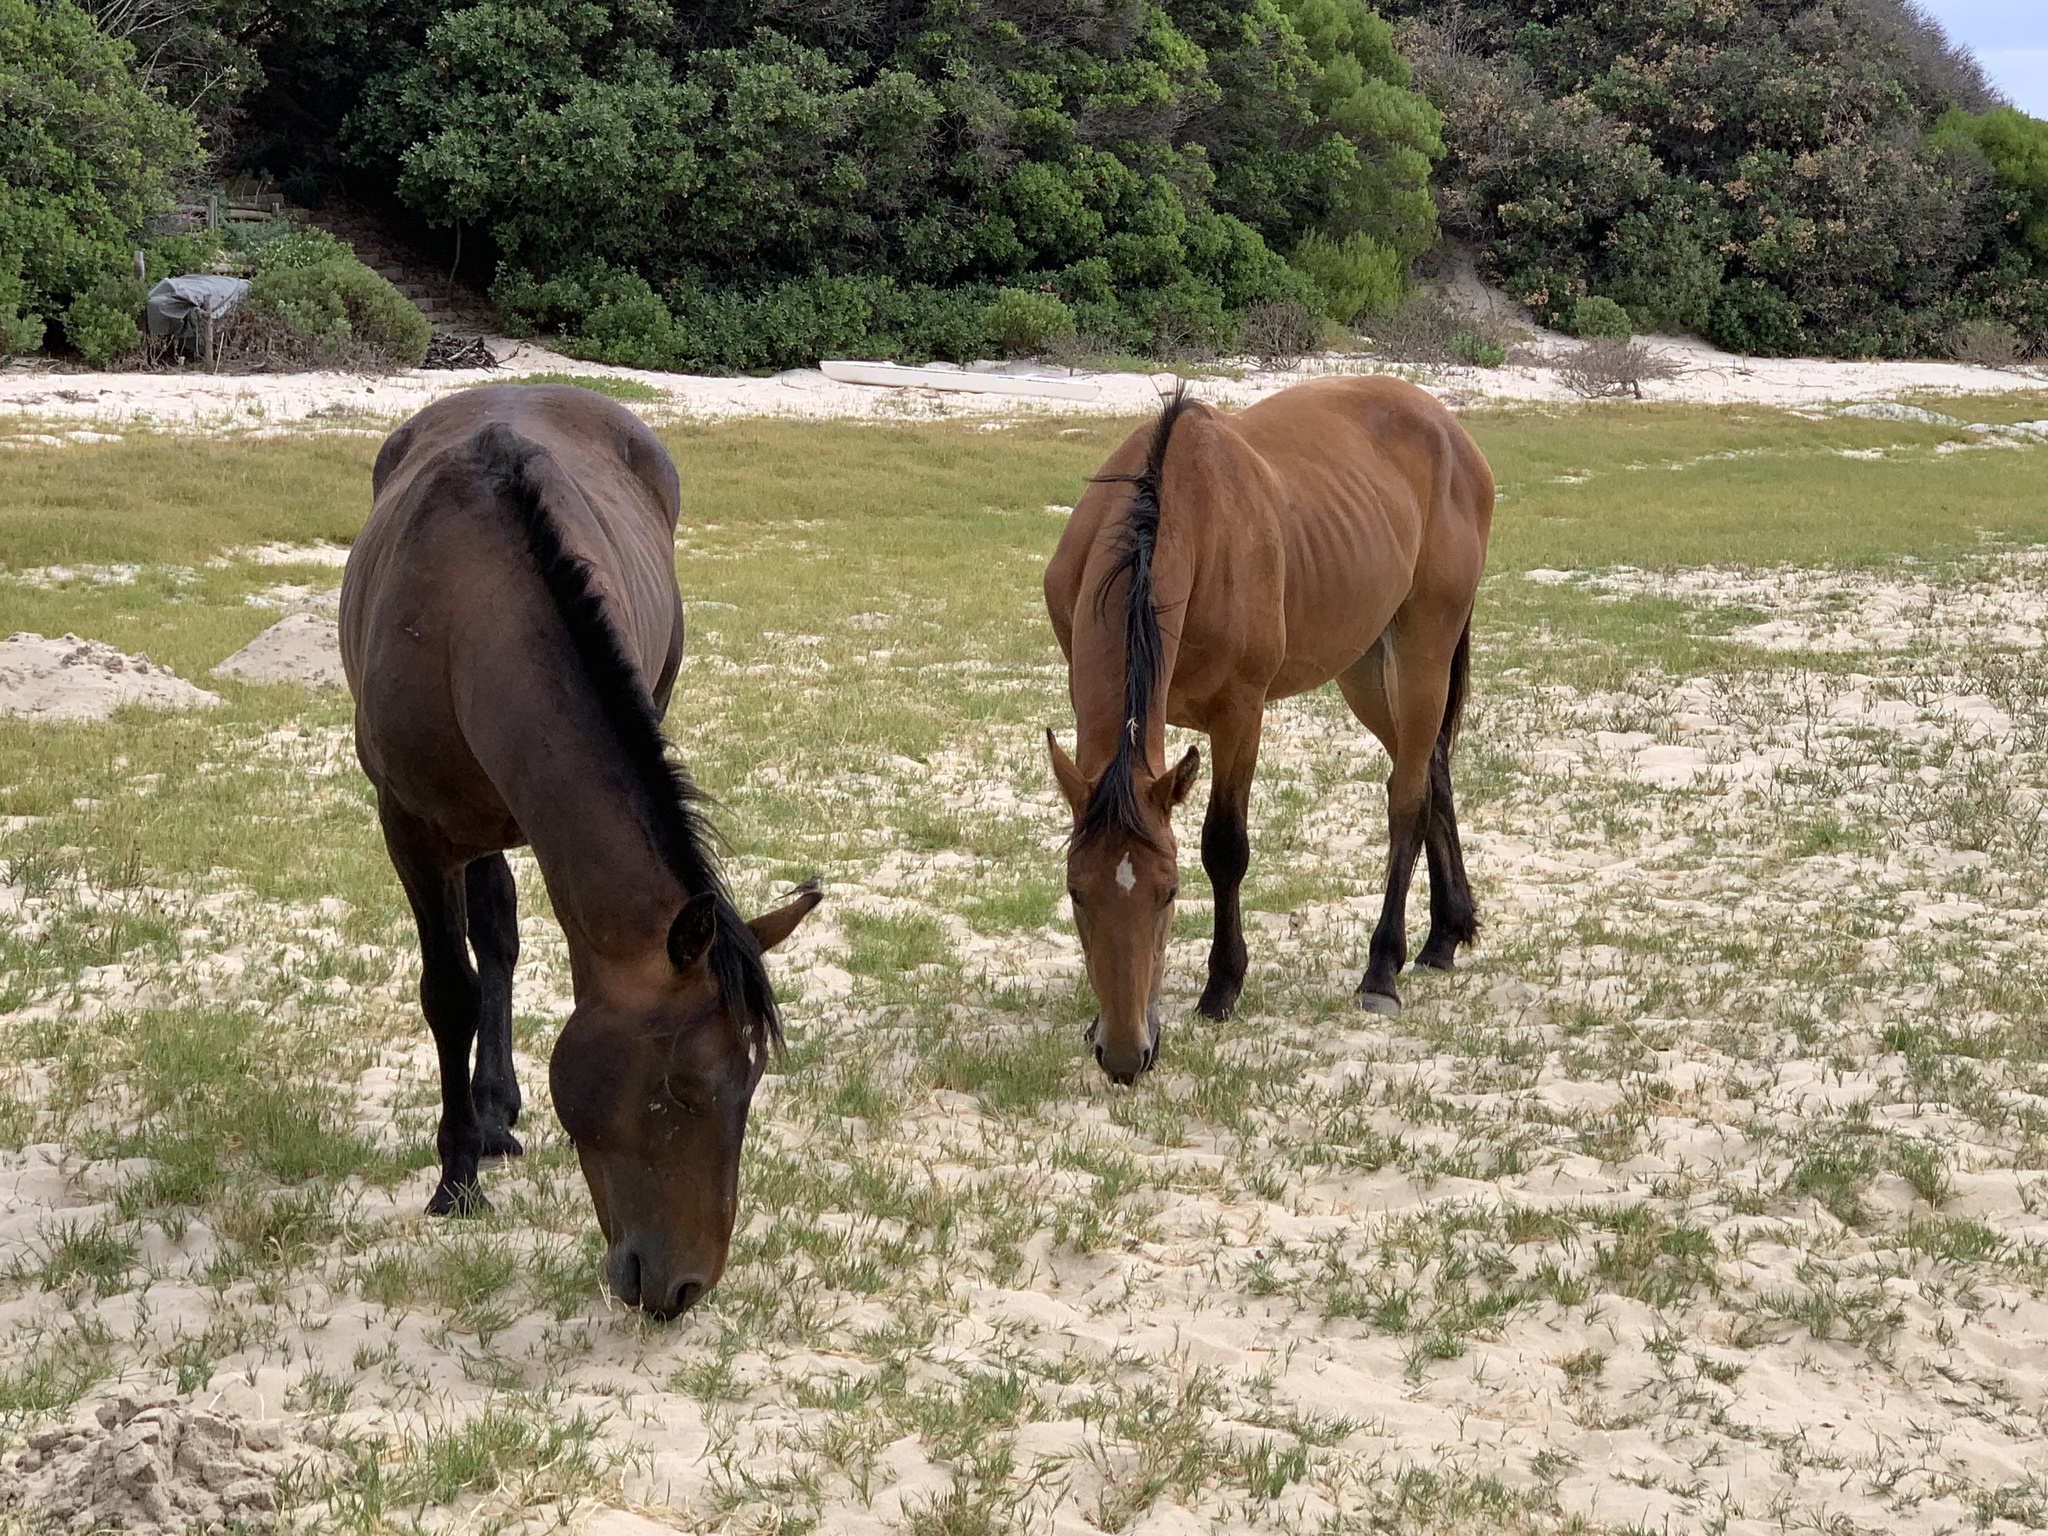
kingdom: Animalia
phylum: Chordata
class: Mammalia
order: Perissodactyla
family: Equidae
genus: Equus
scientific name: Equus caballus
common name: Horse
